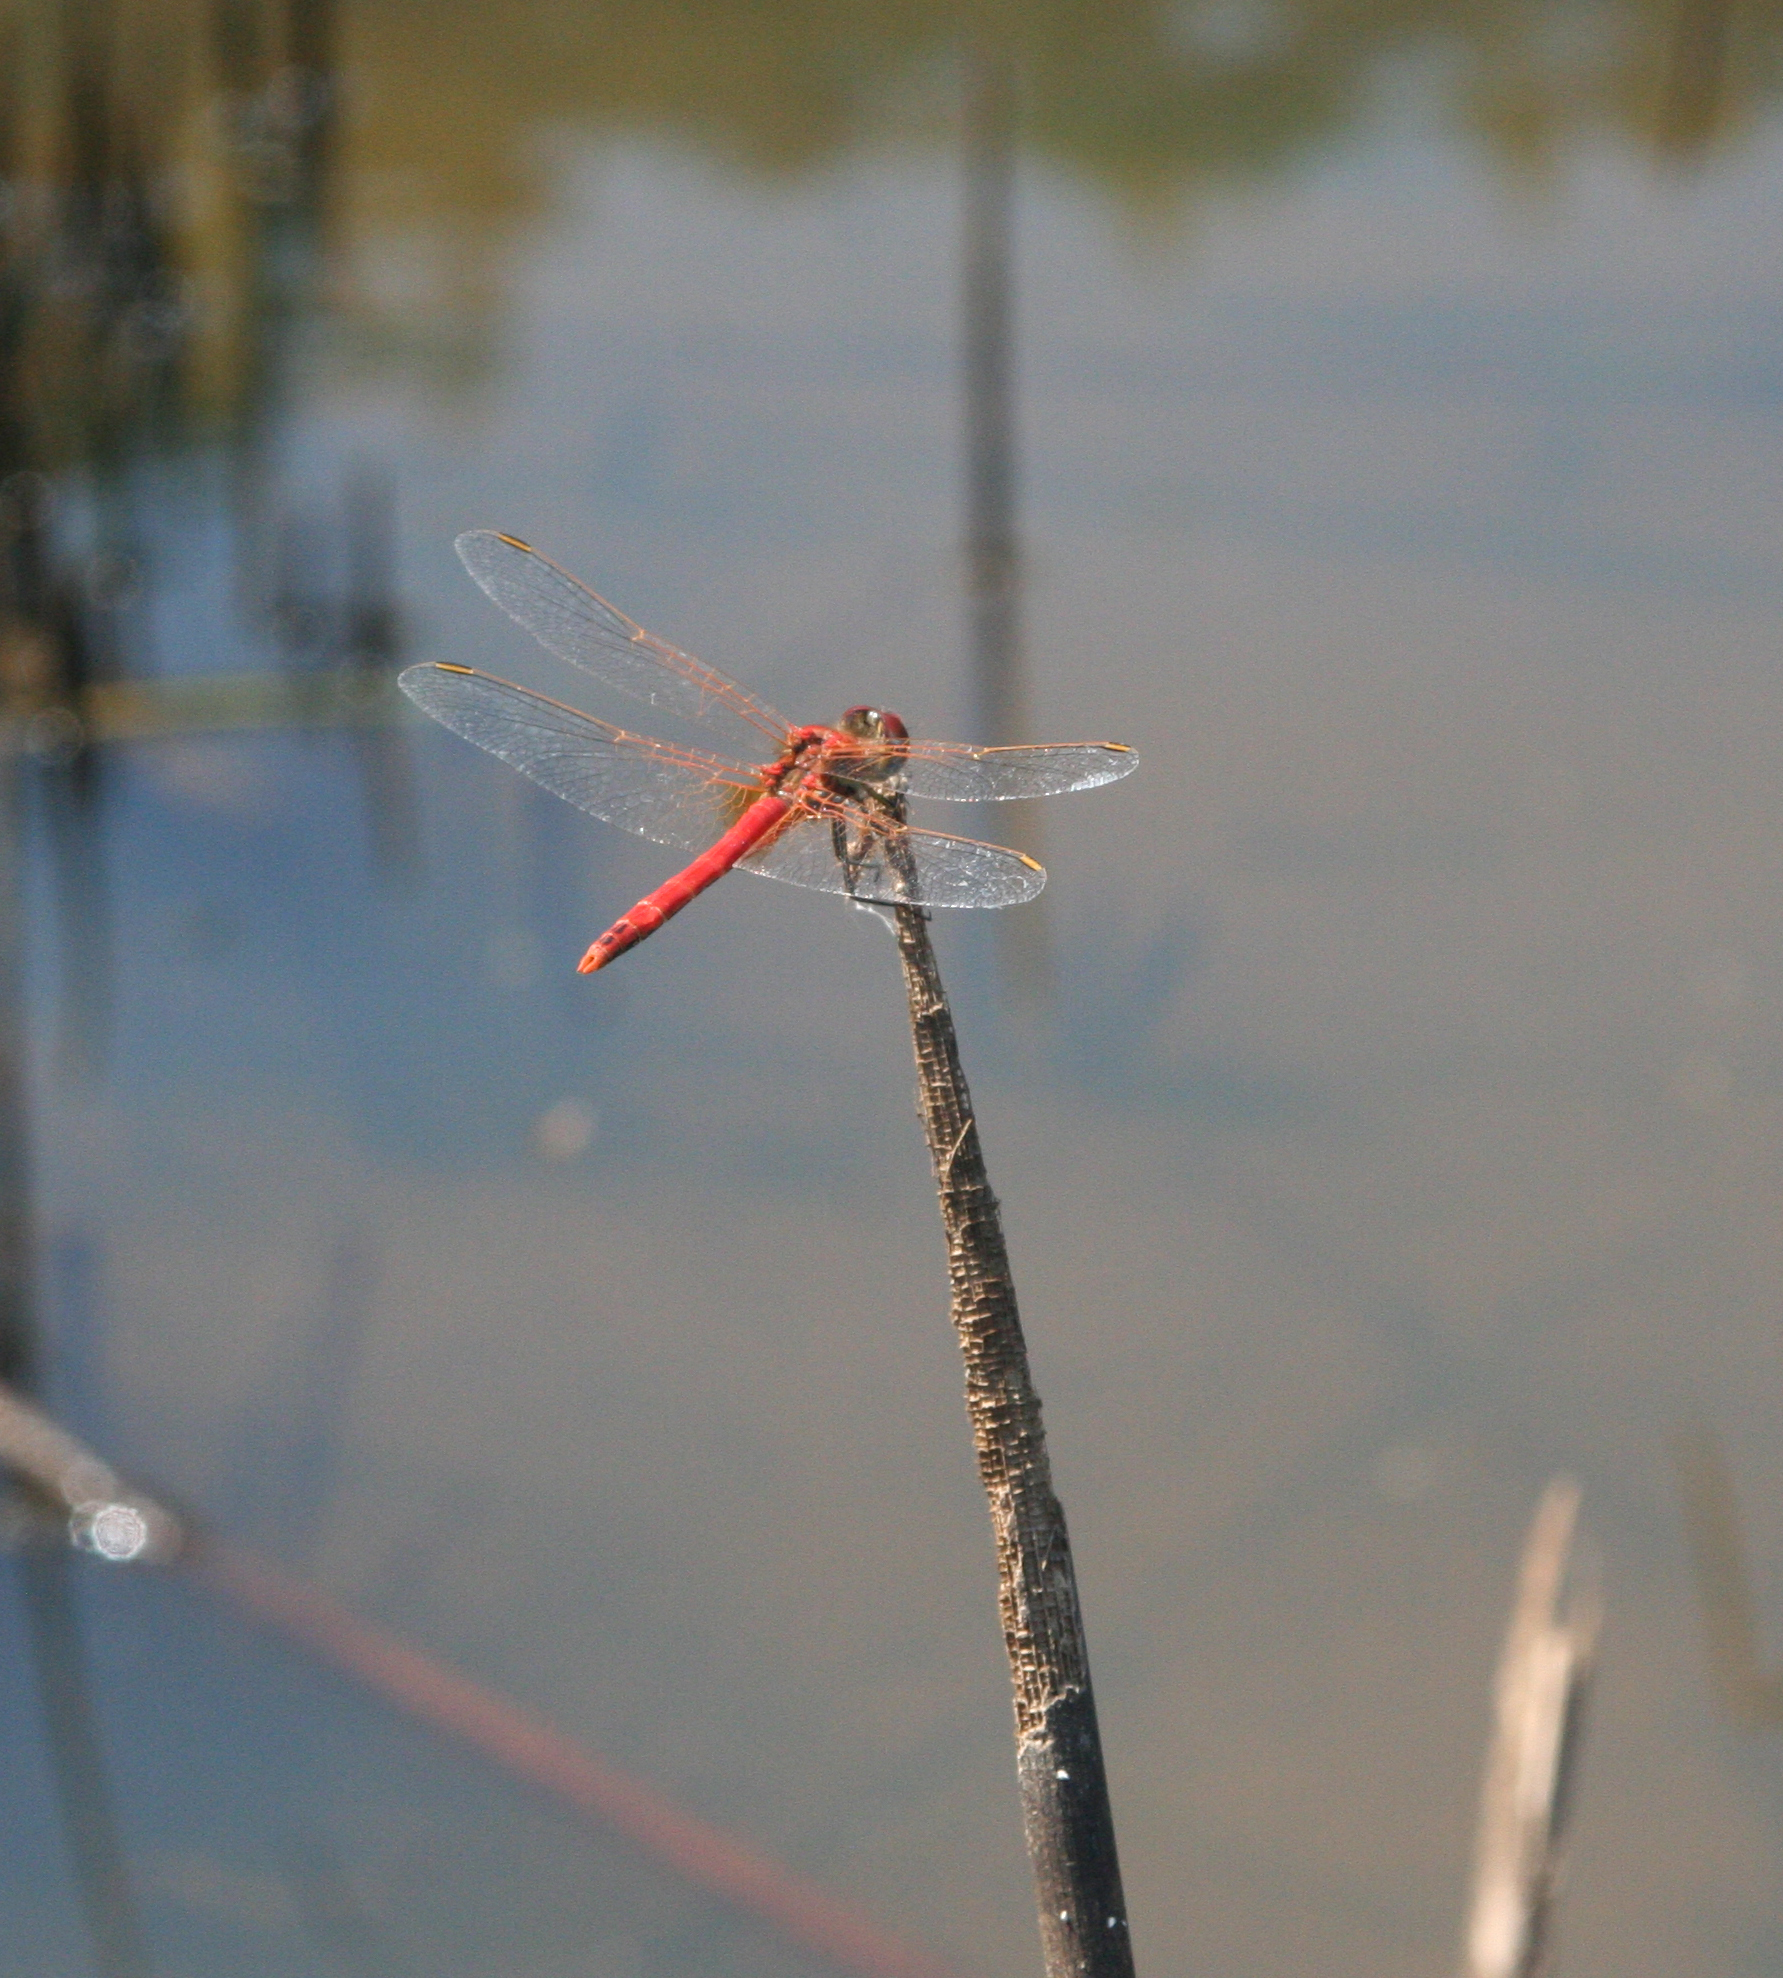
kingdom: Animalia
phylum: Arthropoda
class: Insecta
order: Odonata
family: Libellulidae
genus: Sympetrum
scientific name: Sympetrum fonscolombii
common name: Red-veined darter
